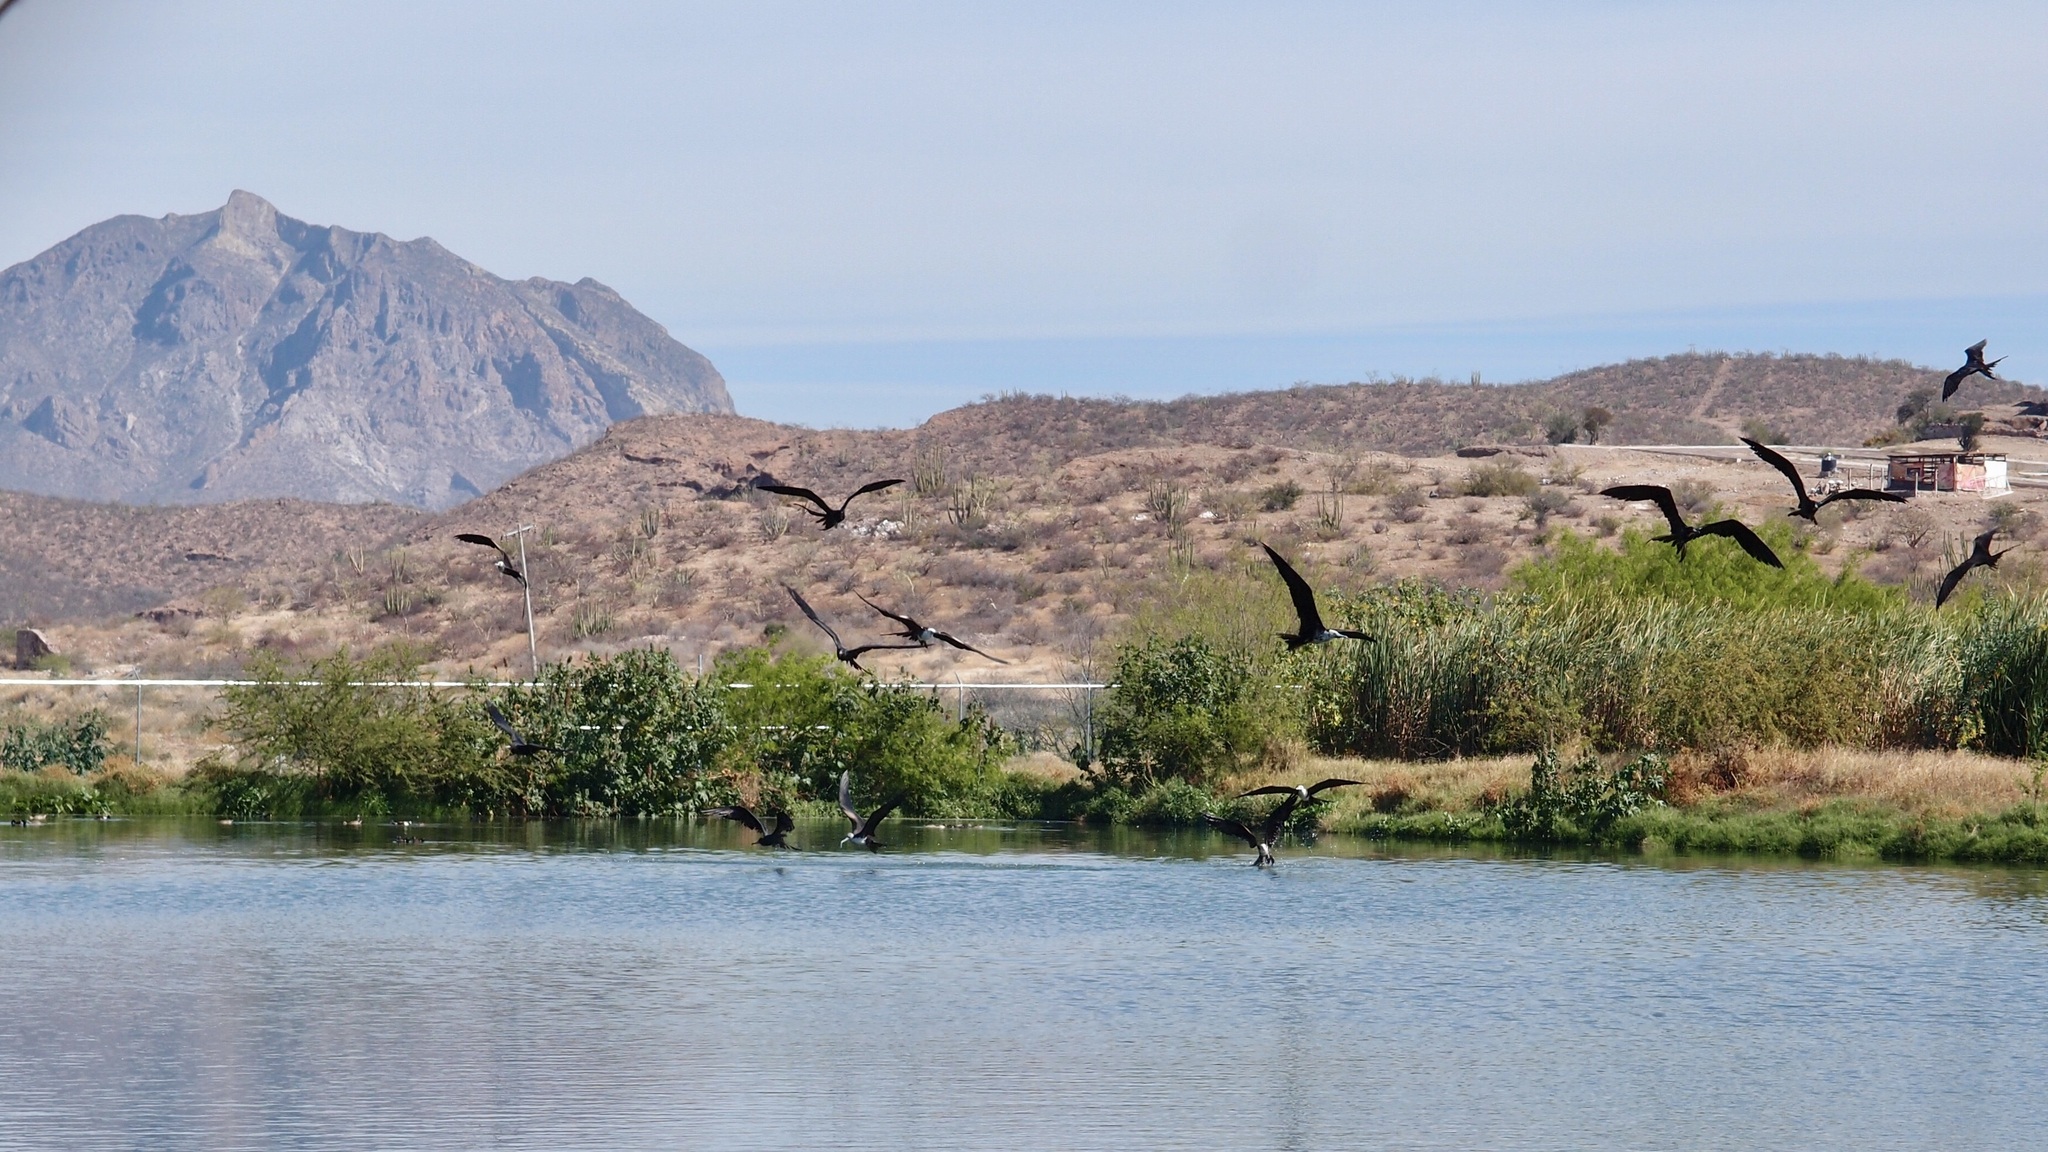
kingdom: Animalia
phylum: Chordata
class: Aves
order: Suliformes
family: Fregatidae
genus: Fregata
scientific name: Fregata magnificens
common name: Magnificent frigatebird
